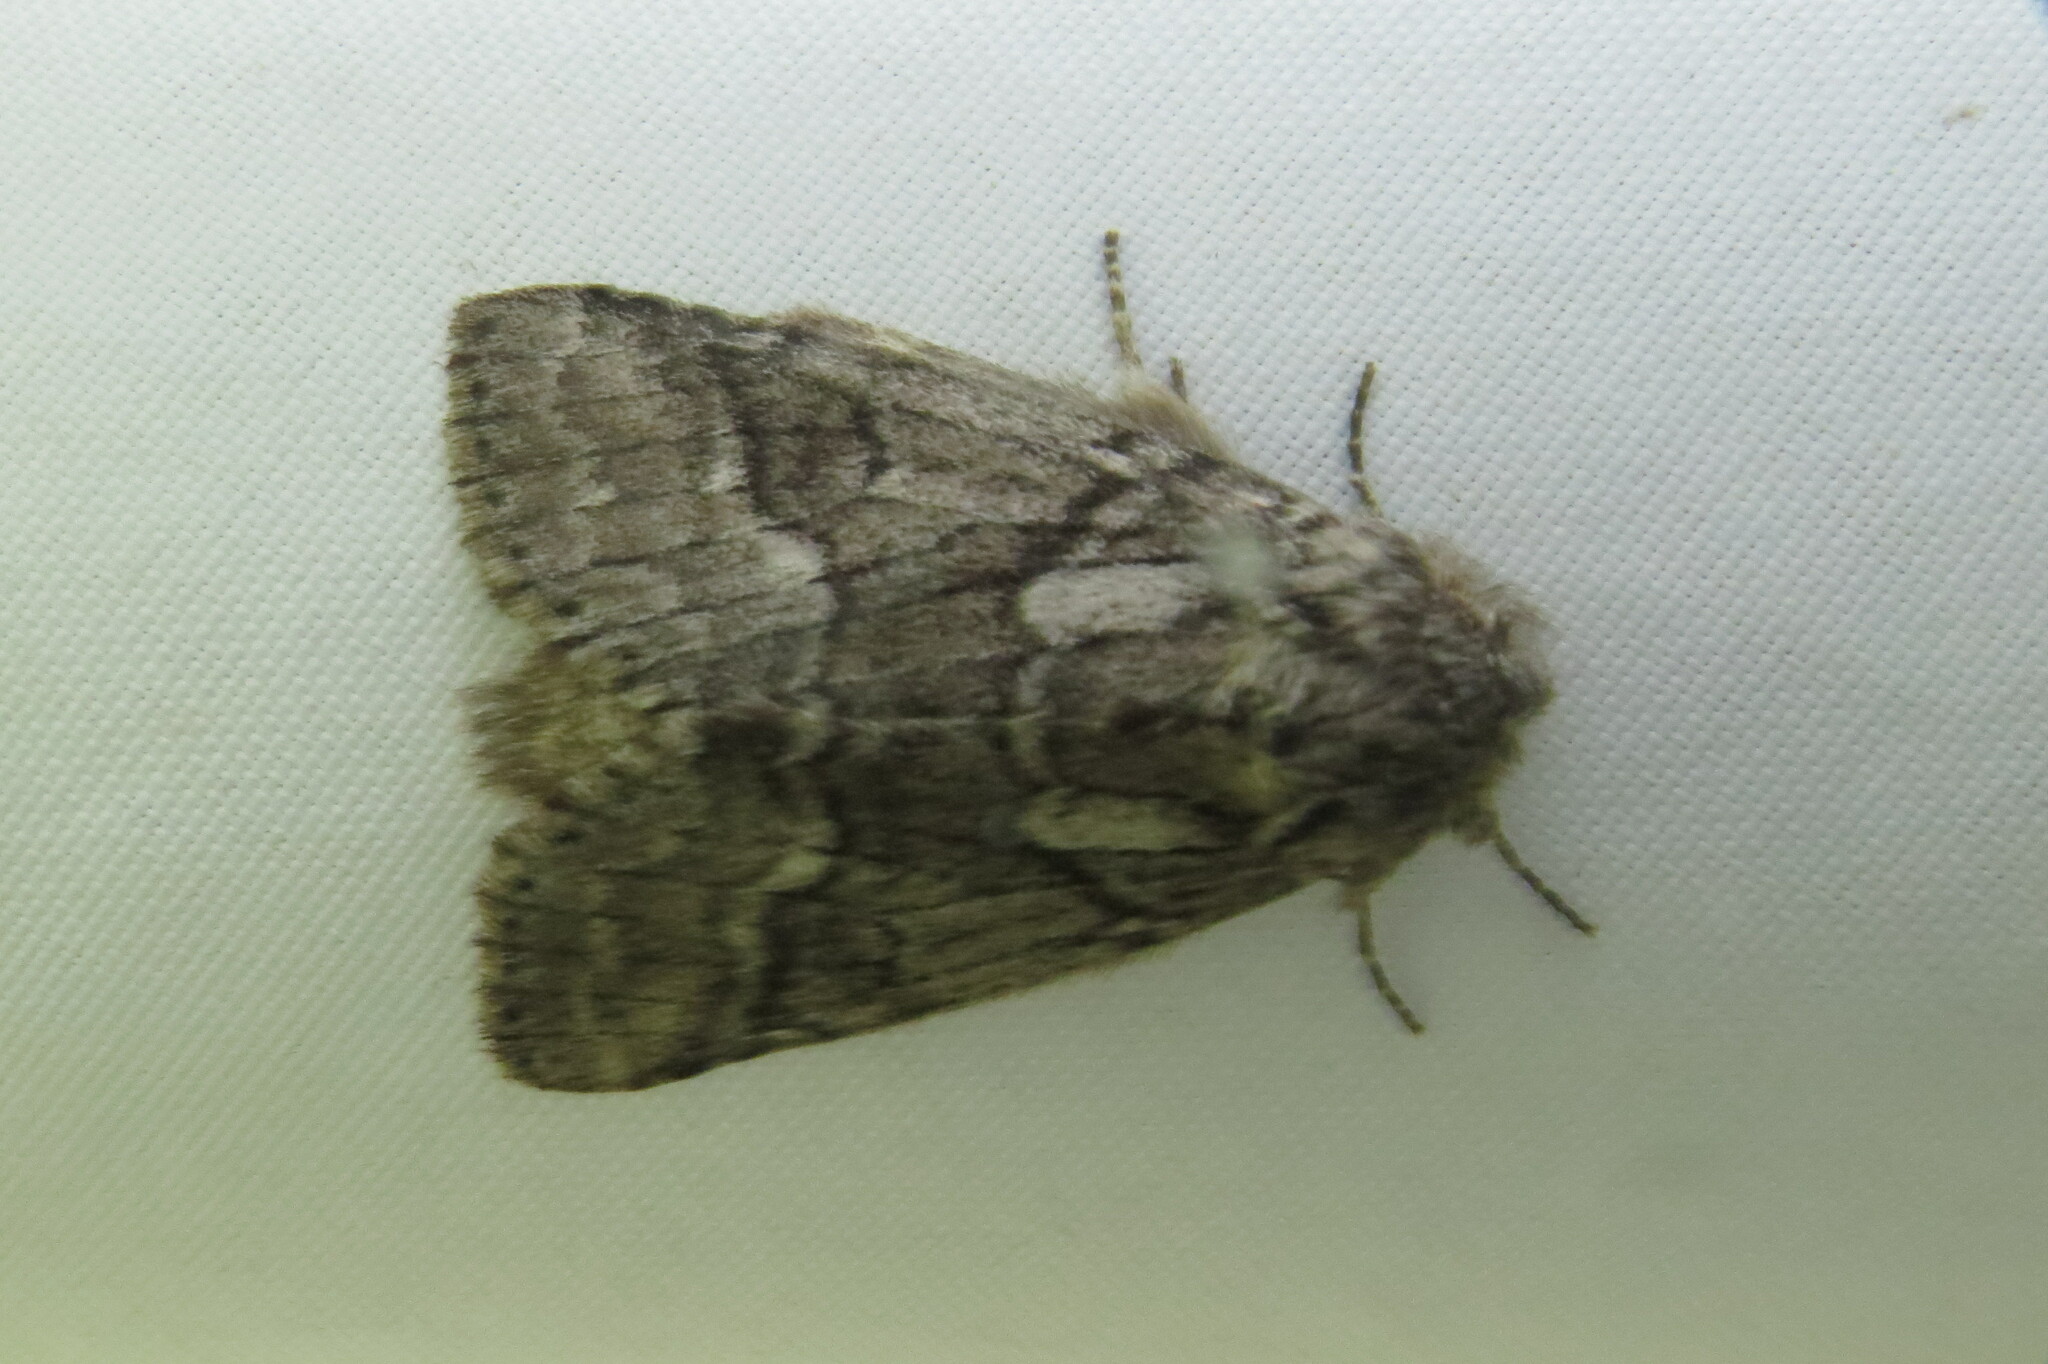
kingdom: Animalia
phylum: Arthropoda
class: Insecta
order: Lepidoptera
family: Notodontidae
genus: Lochmaeus
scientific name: Lochmaeus bilineata
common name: Double-lined prominent
